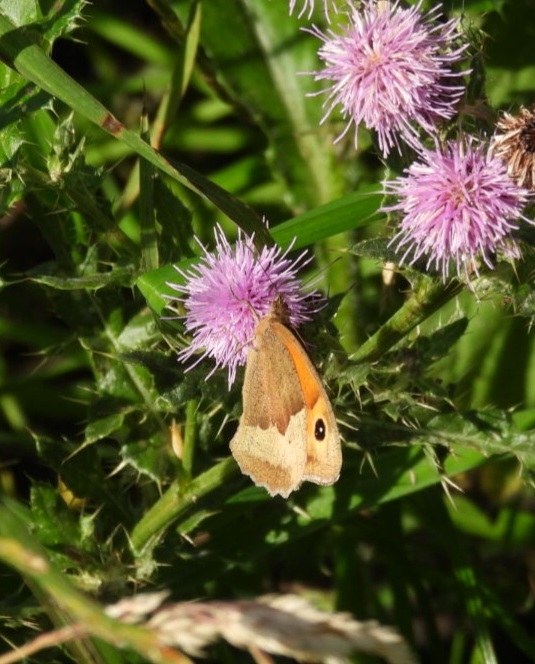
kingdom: Animalia
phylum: Arthropoda
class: Insecta
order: Lepidoptera
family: Nymphalidae
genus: Maniola
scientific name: Maniola jurtina
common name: Meadow brown
